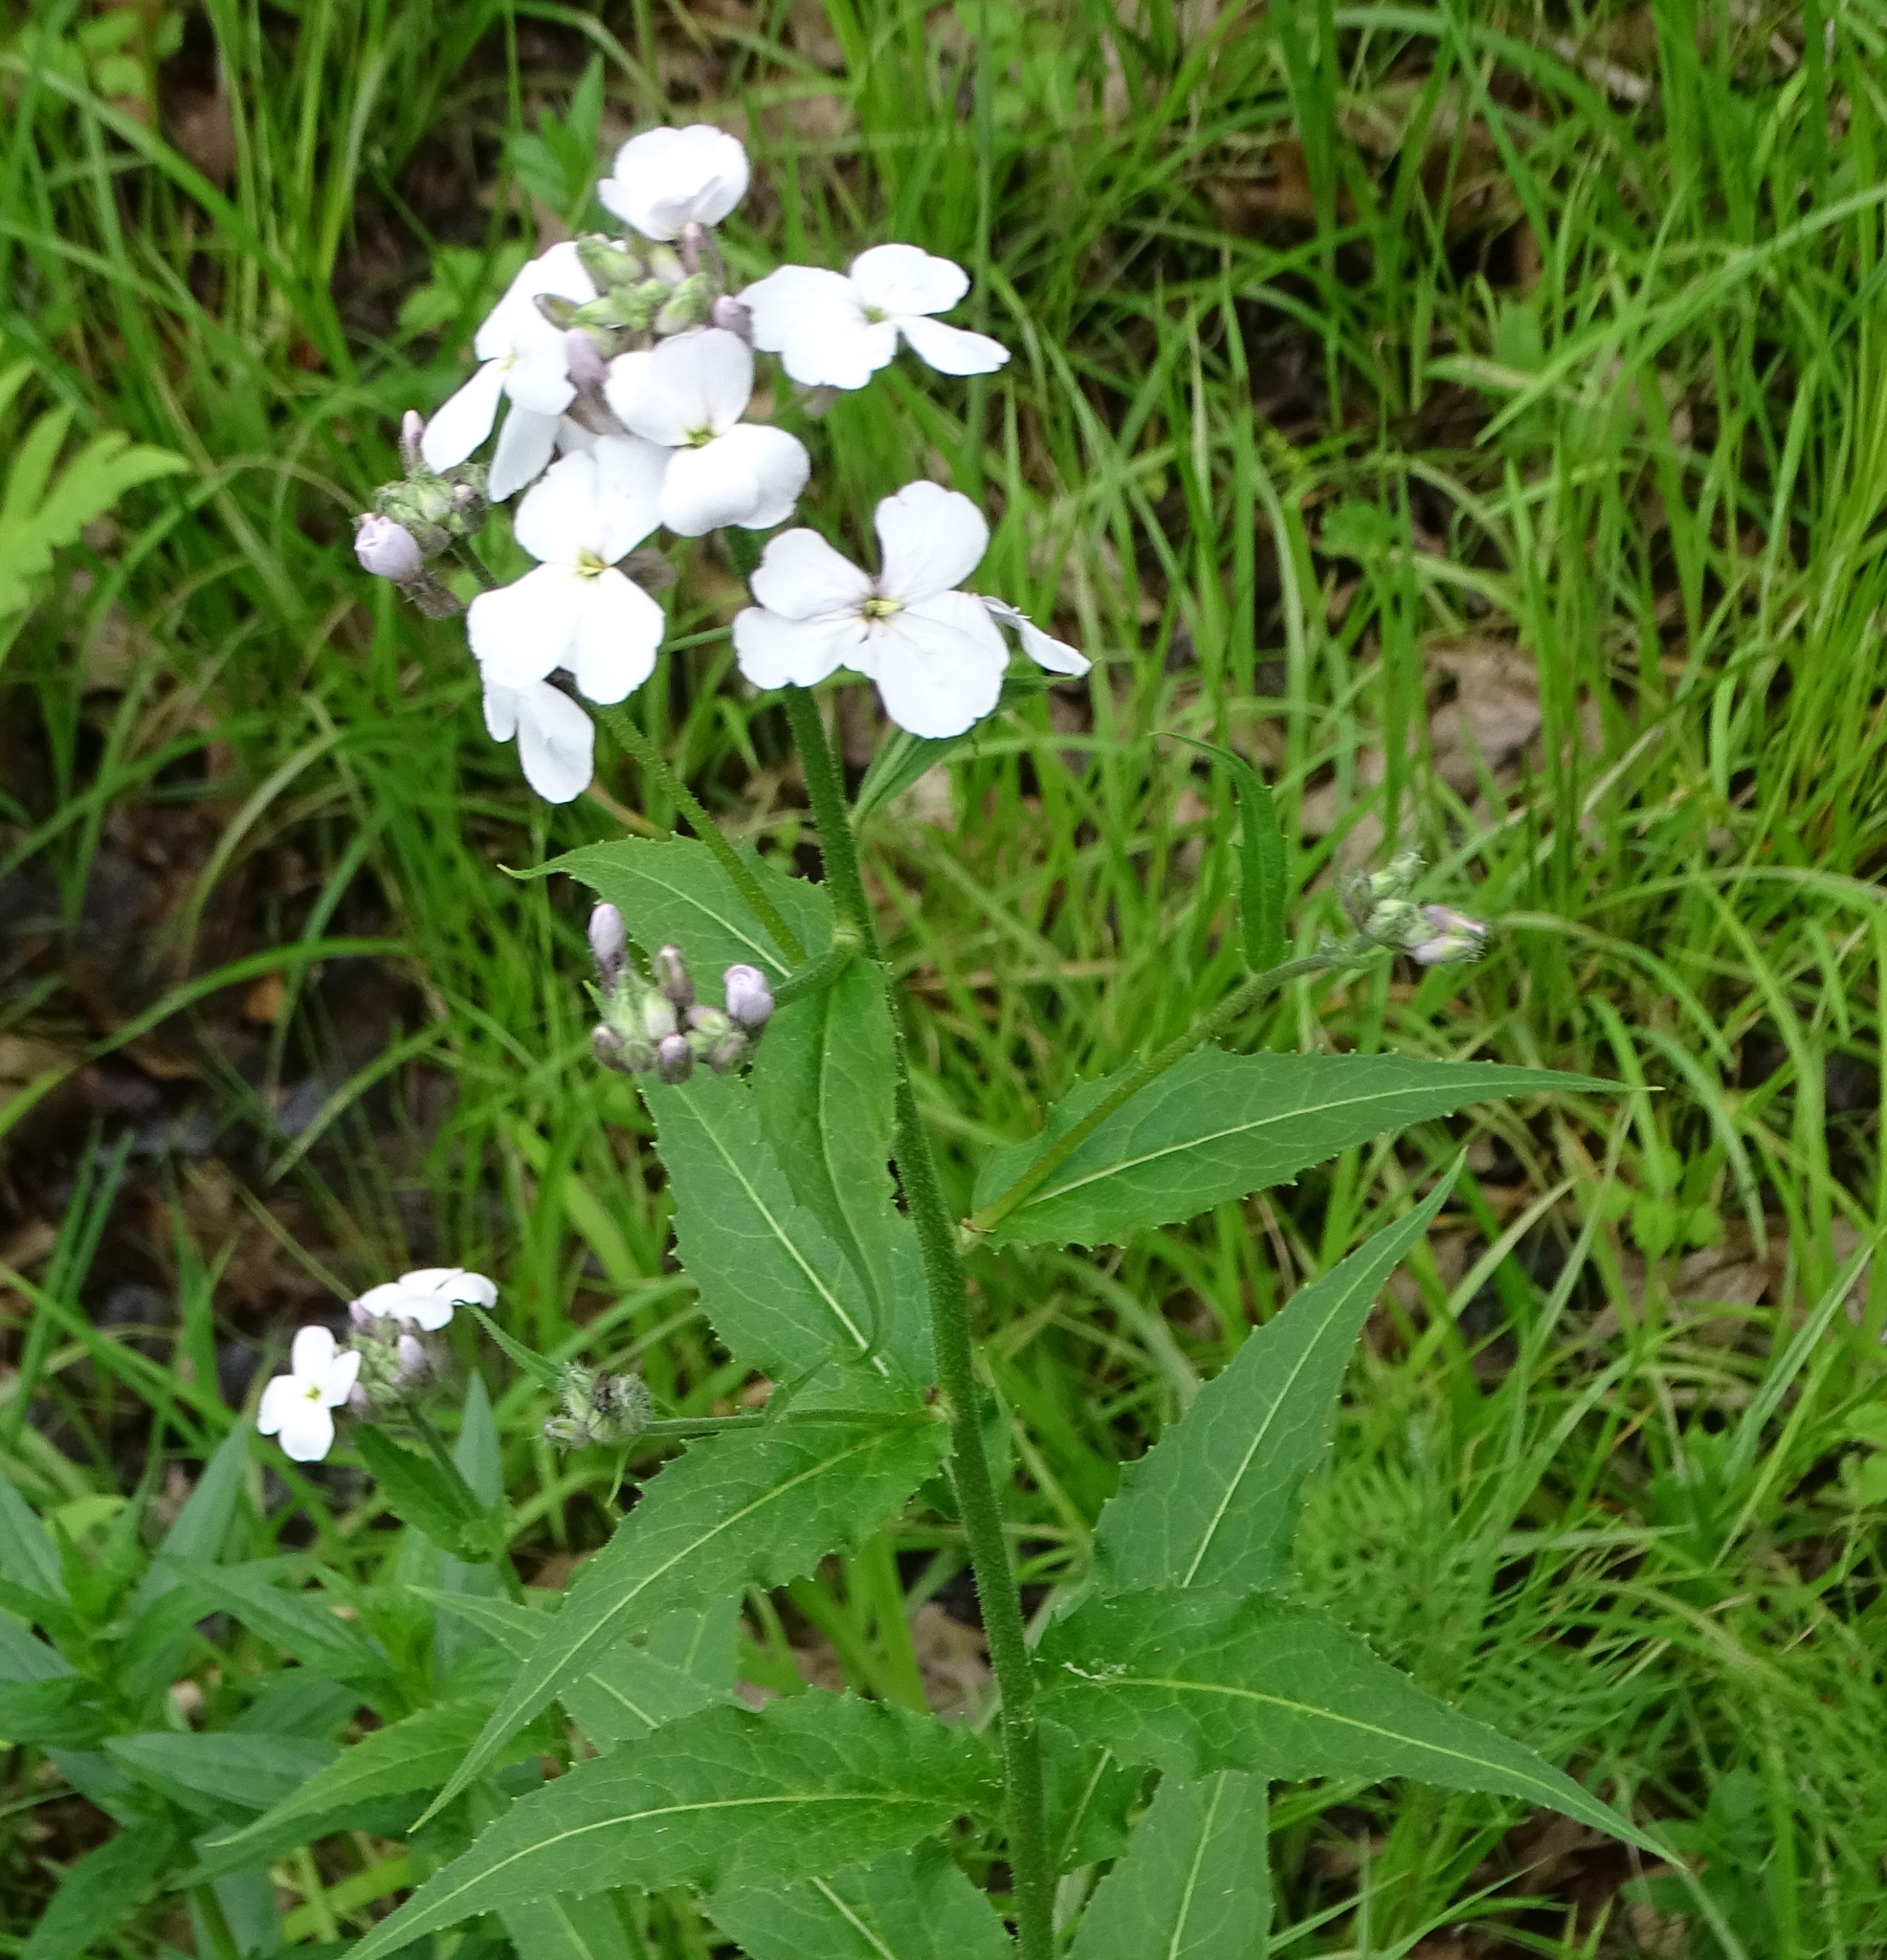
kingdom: Plantae
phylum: Tracheophyta
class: Magnoliopsida
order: Brassicales
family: Brassicaceae
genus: Hesperis
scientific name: Hesperis matronalis
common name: Dame's-violet
